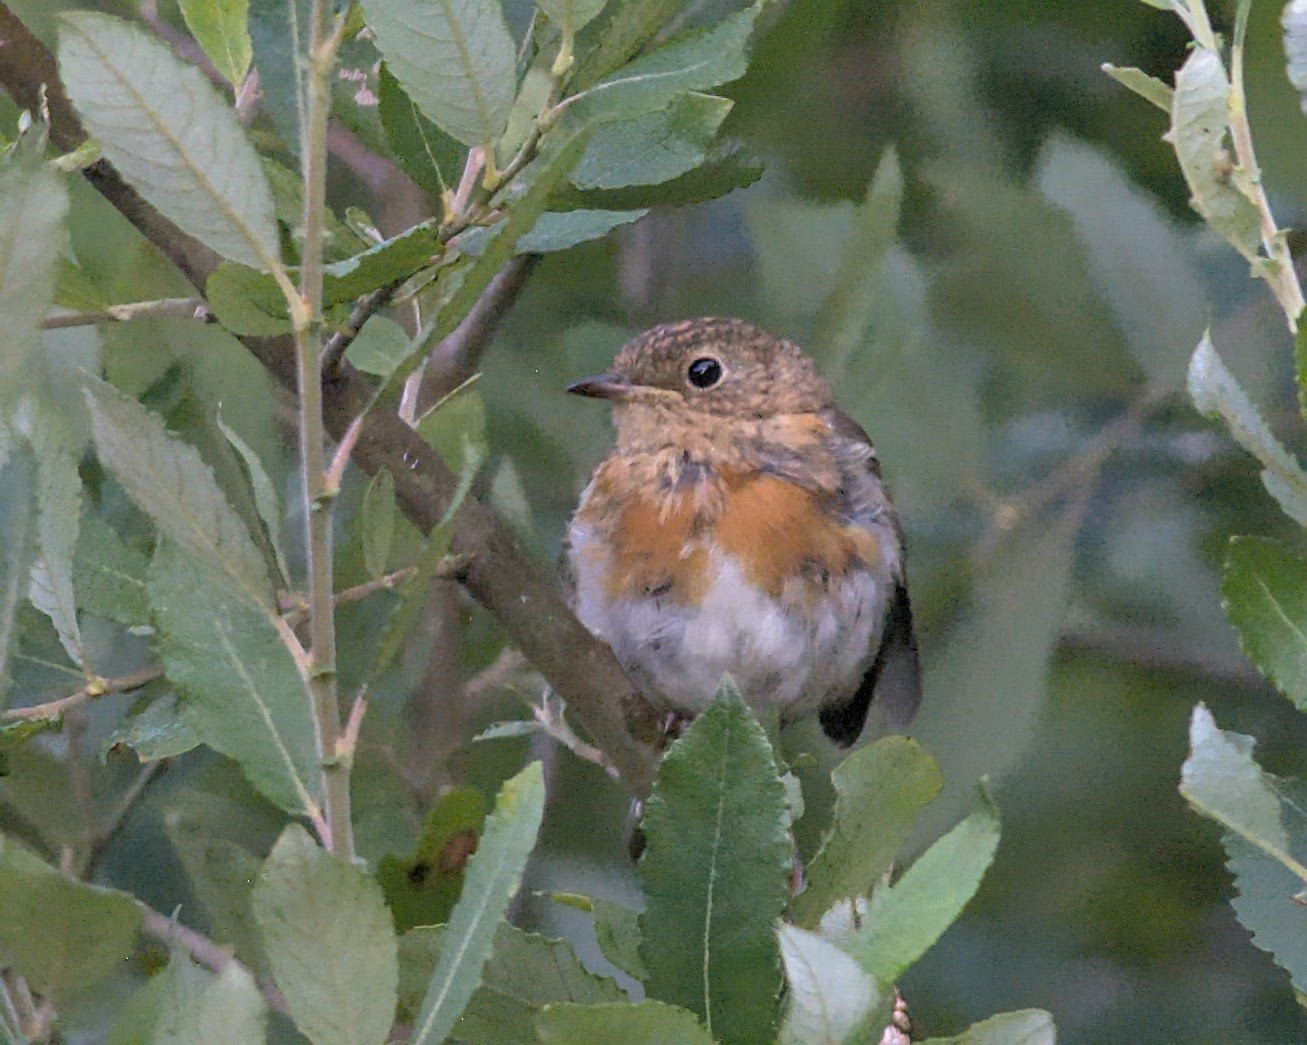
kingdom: Animalia
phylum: Chordata
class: Aves
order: Passeriformes
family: Muscicapidae
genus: Erithacus
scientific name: Erithacus rubecula
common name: European robin
